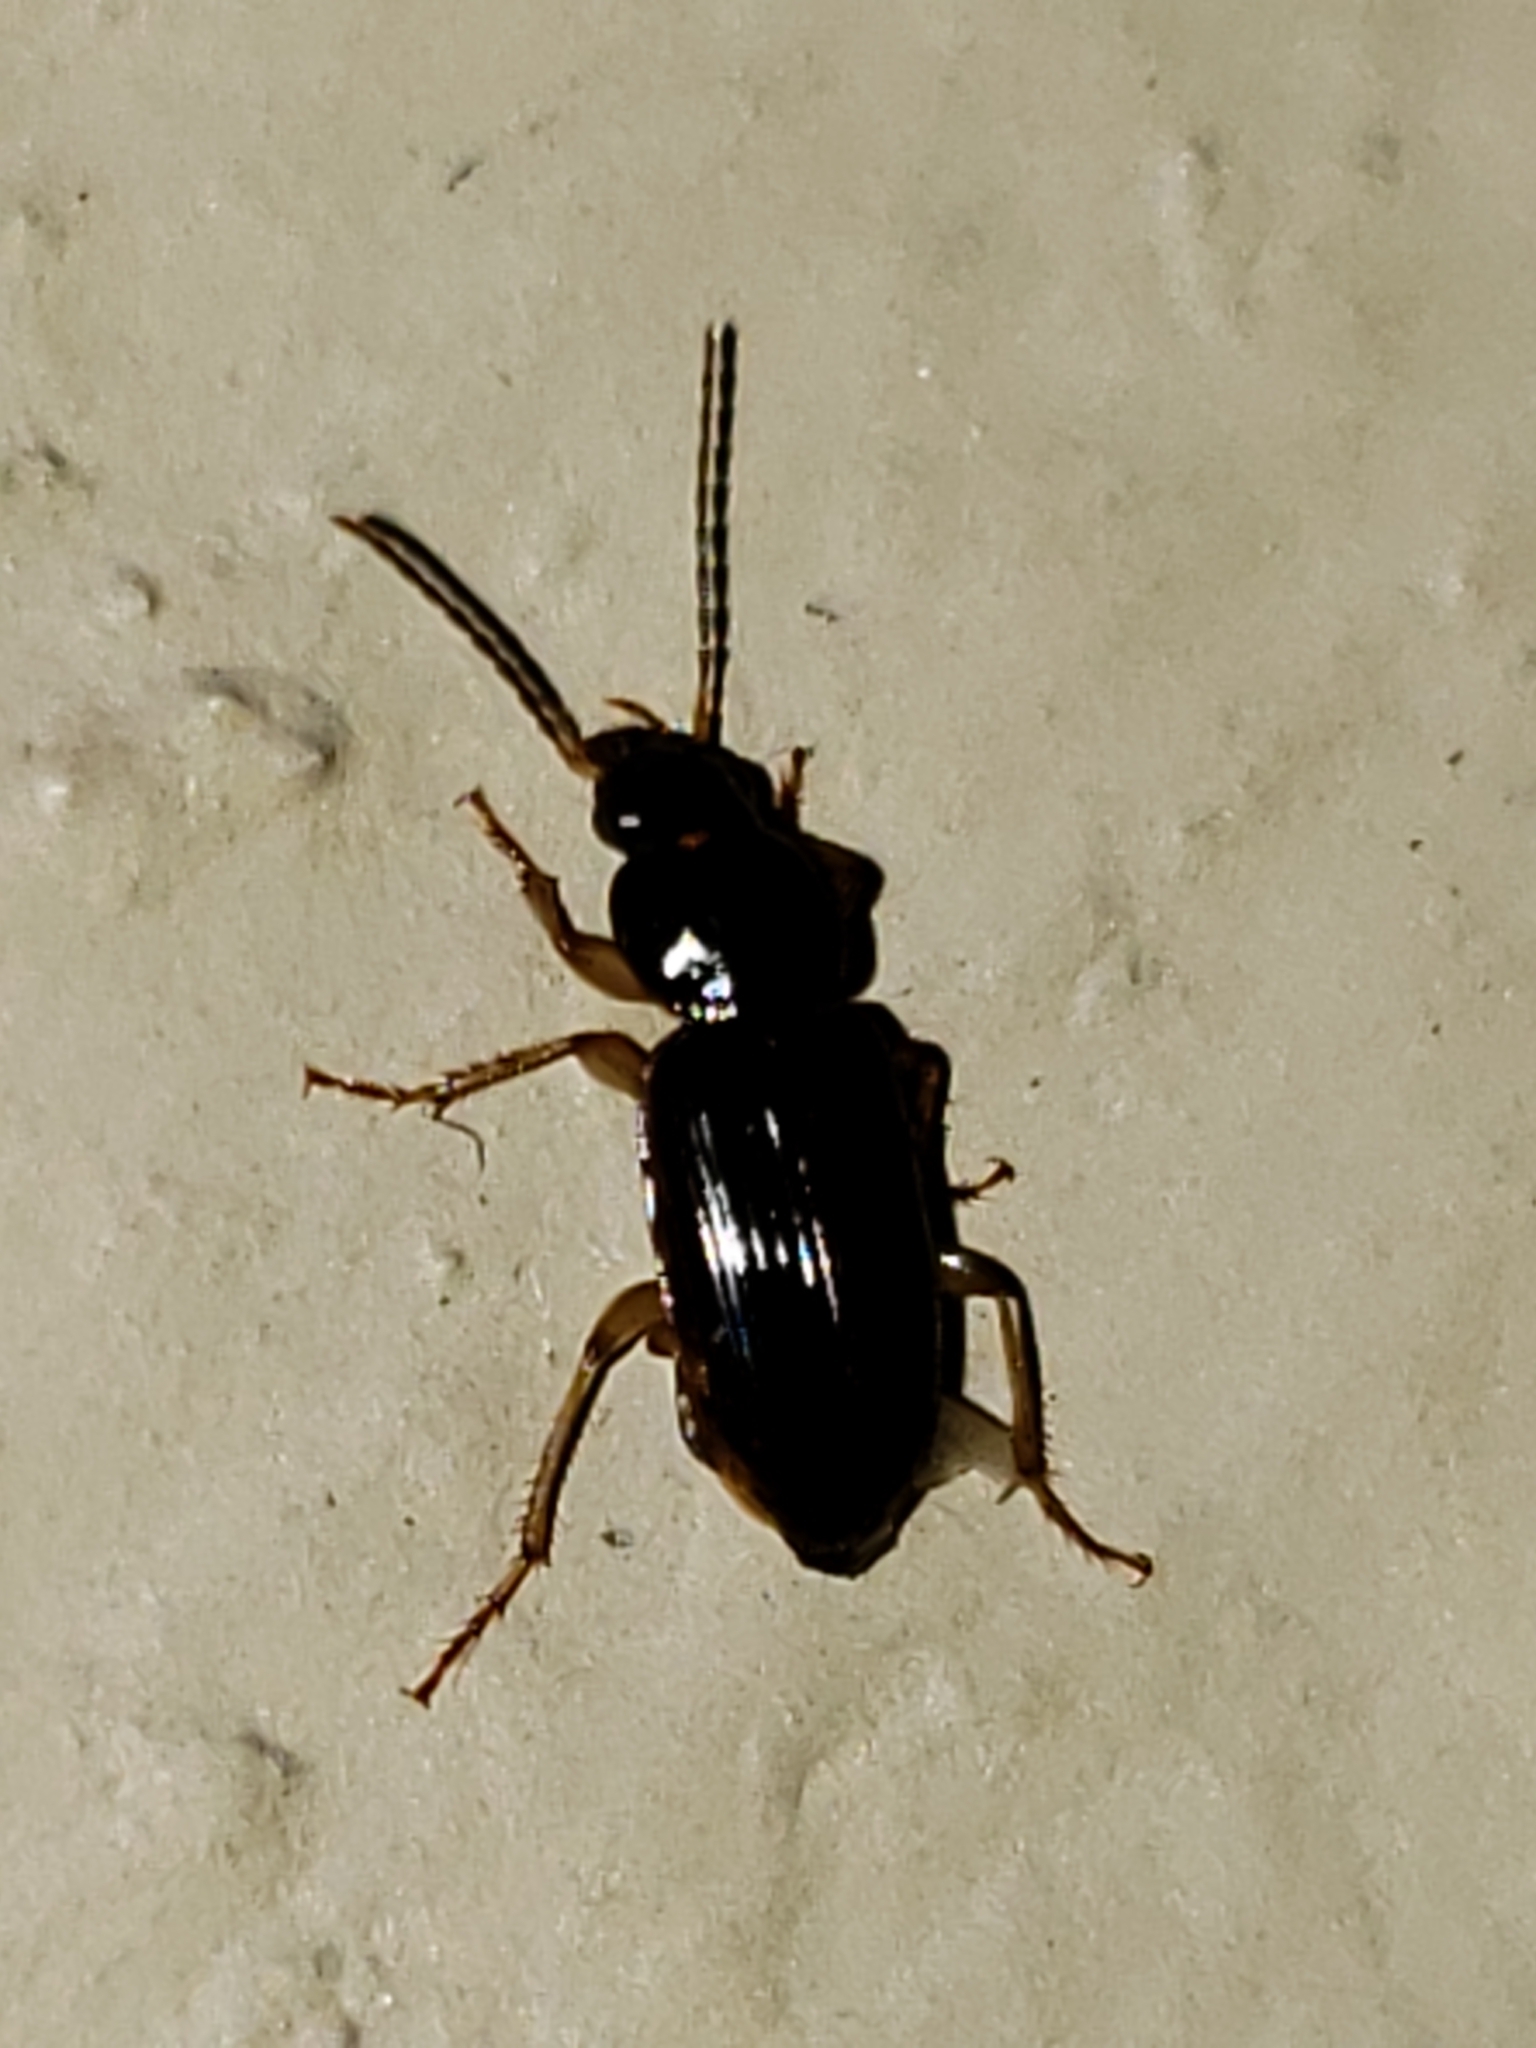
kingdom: Animalia
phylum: Arthropoda
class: Insecta
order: Coleoptera
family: Carabidae
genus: Stenolophus
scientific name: Stenolophus ochropezus
